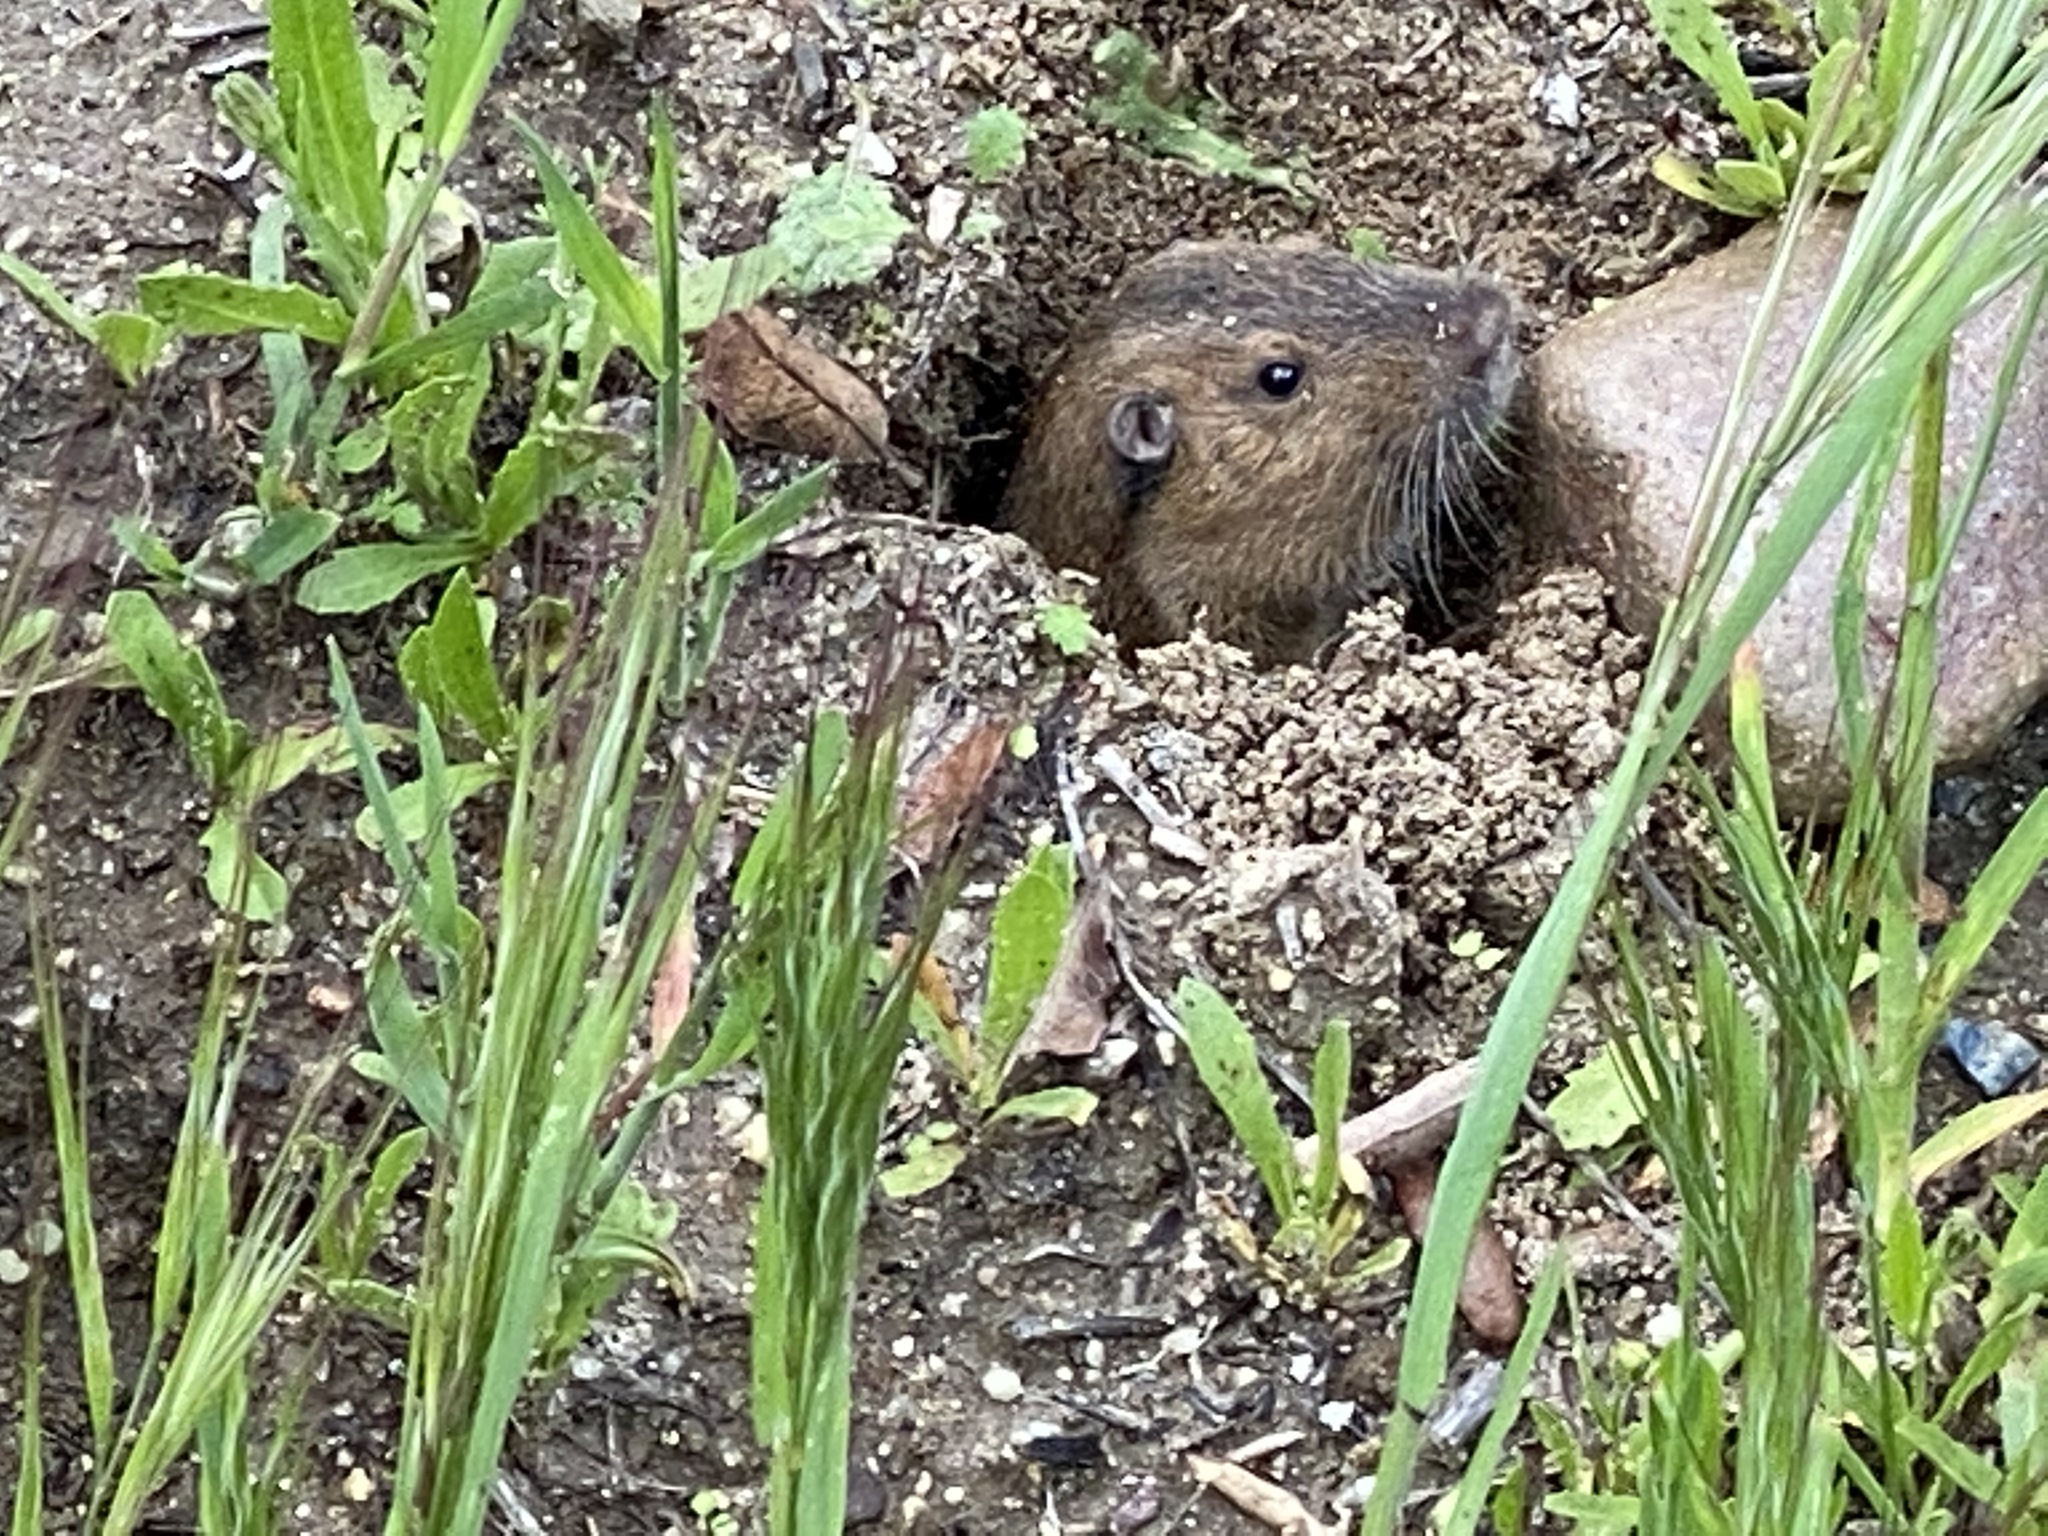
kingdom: Animalia
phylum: Chordata
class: Mammalia
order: Rodentia
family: Geomyidae
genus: Thomomys
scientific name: Thomomys bottae
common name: Botta's pocket gopher
